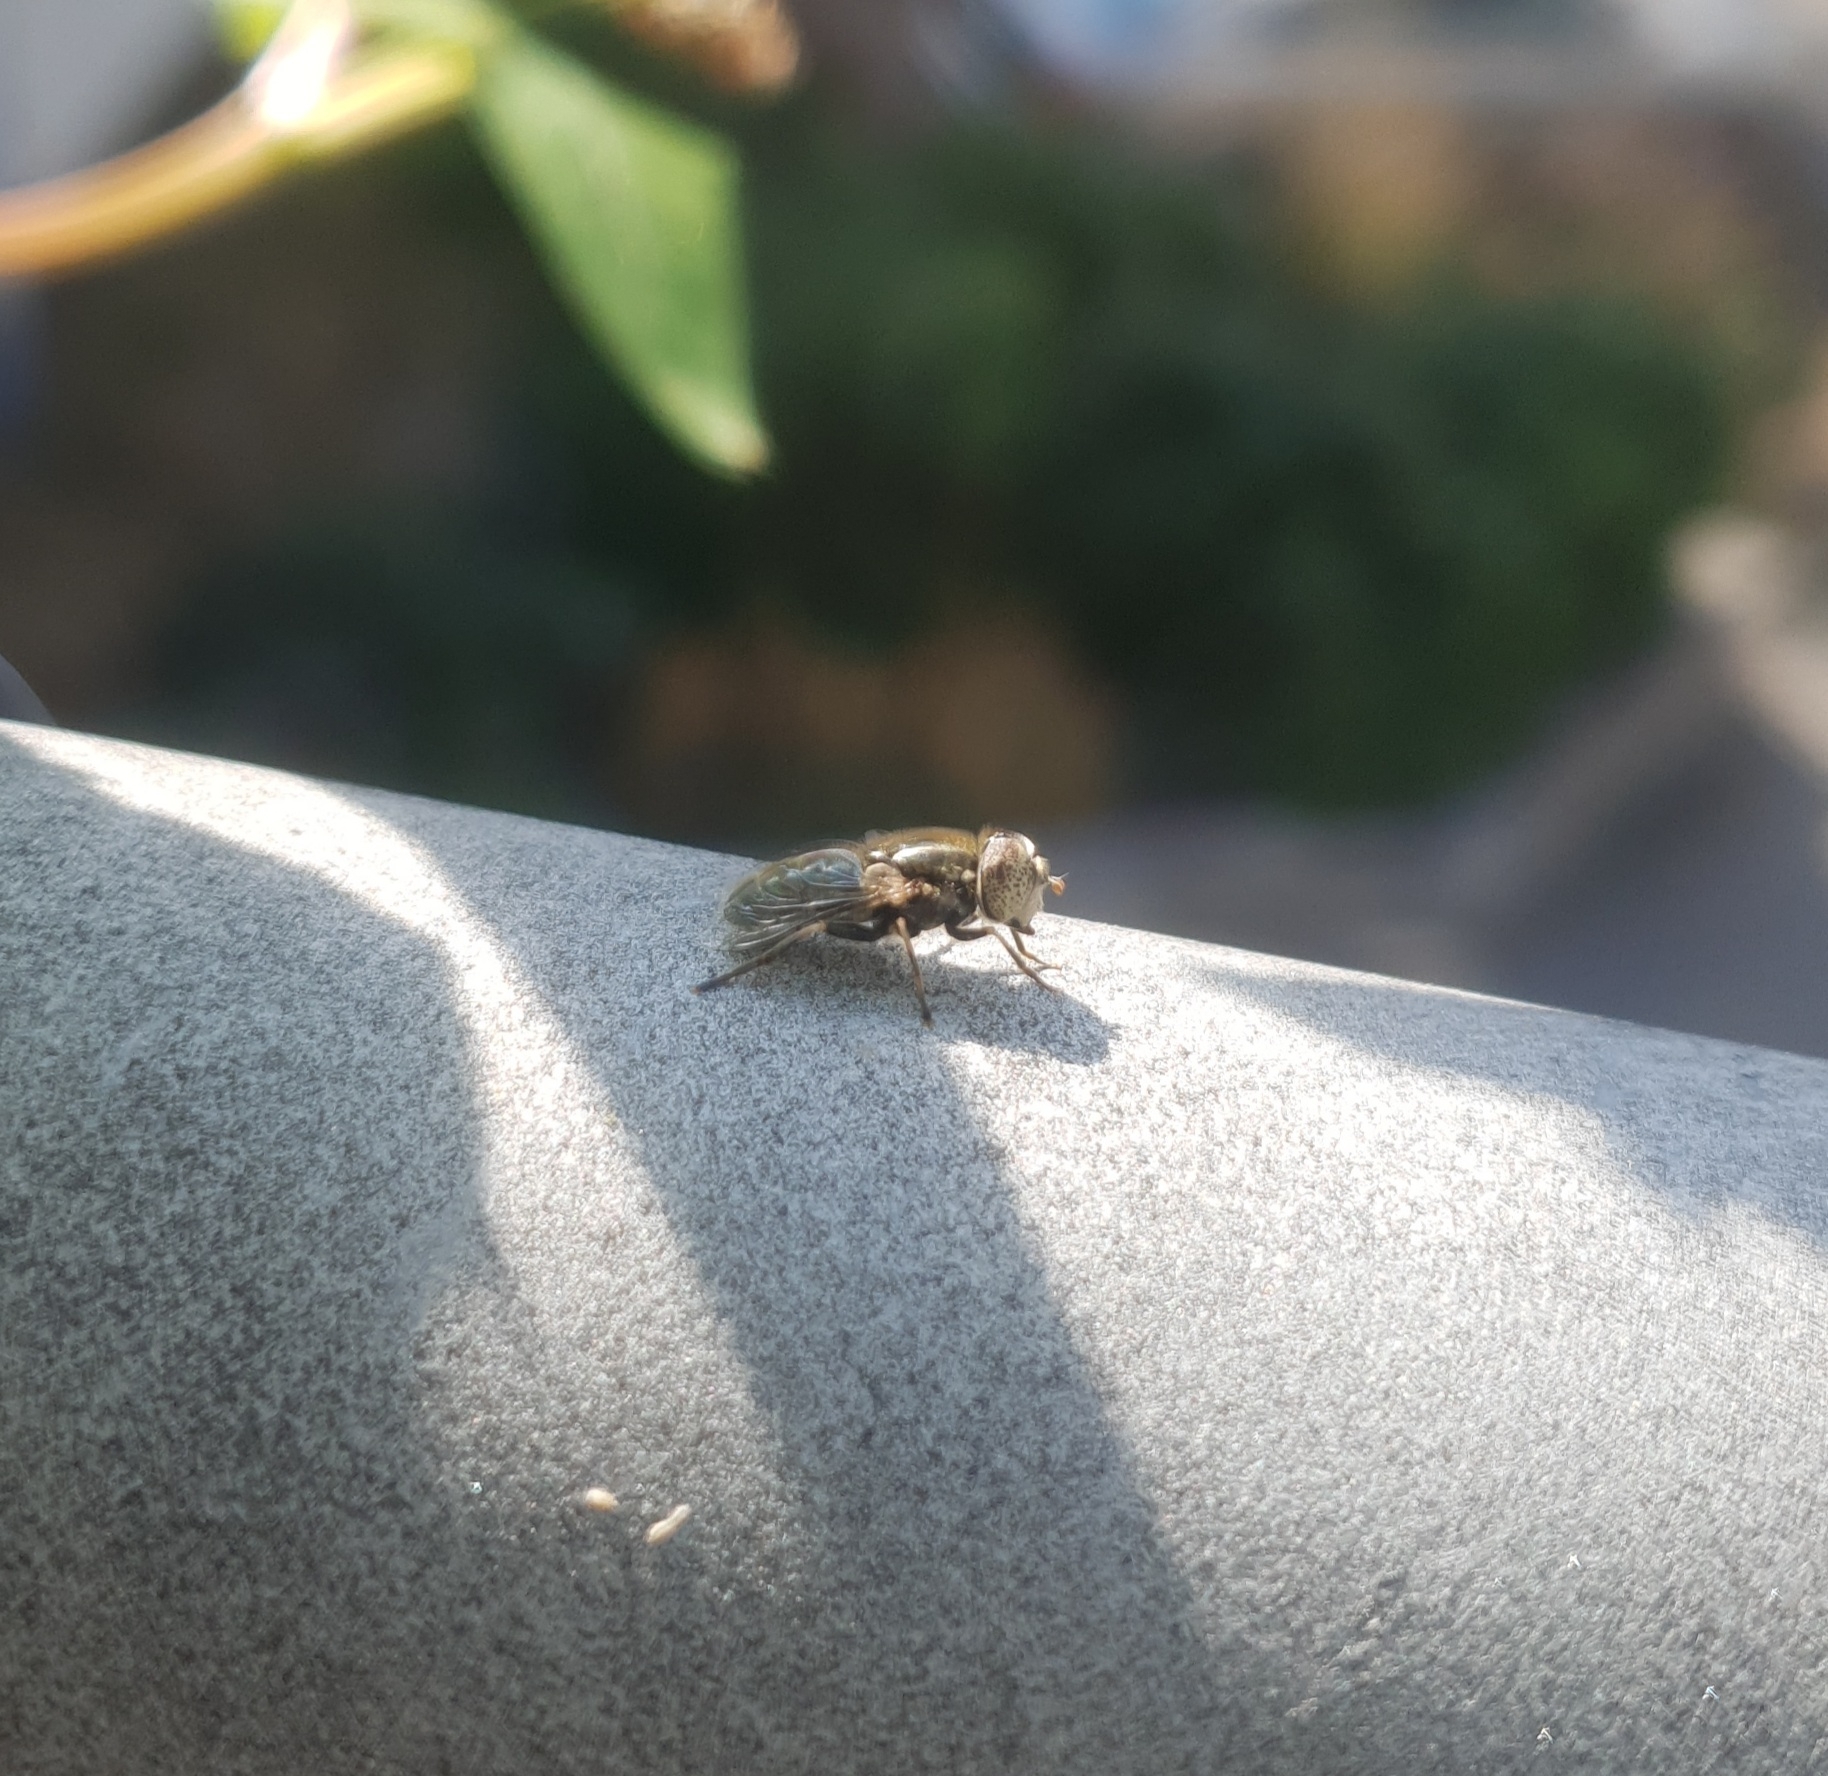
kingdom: Animalia
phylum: Arthropoda
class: Insecta
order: Diptera
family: Syrphidae
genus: Eristalinus
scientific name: Eristalinus aeneus
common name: Syrphid fly
